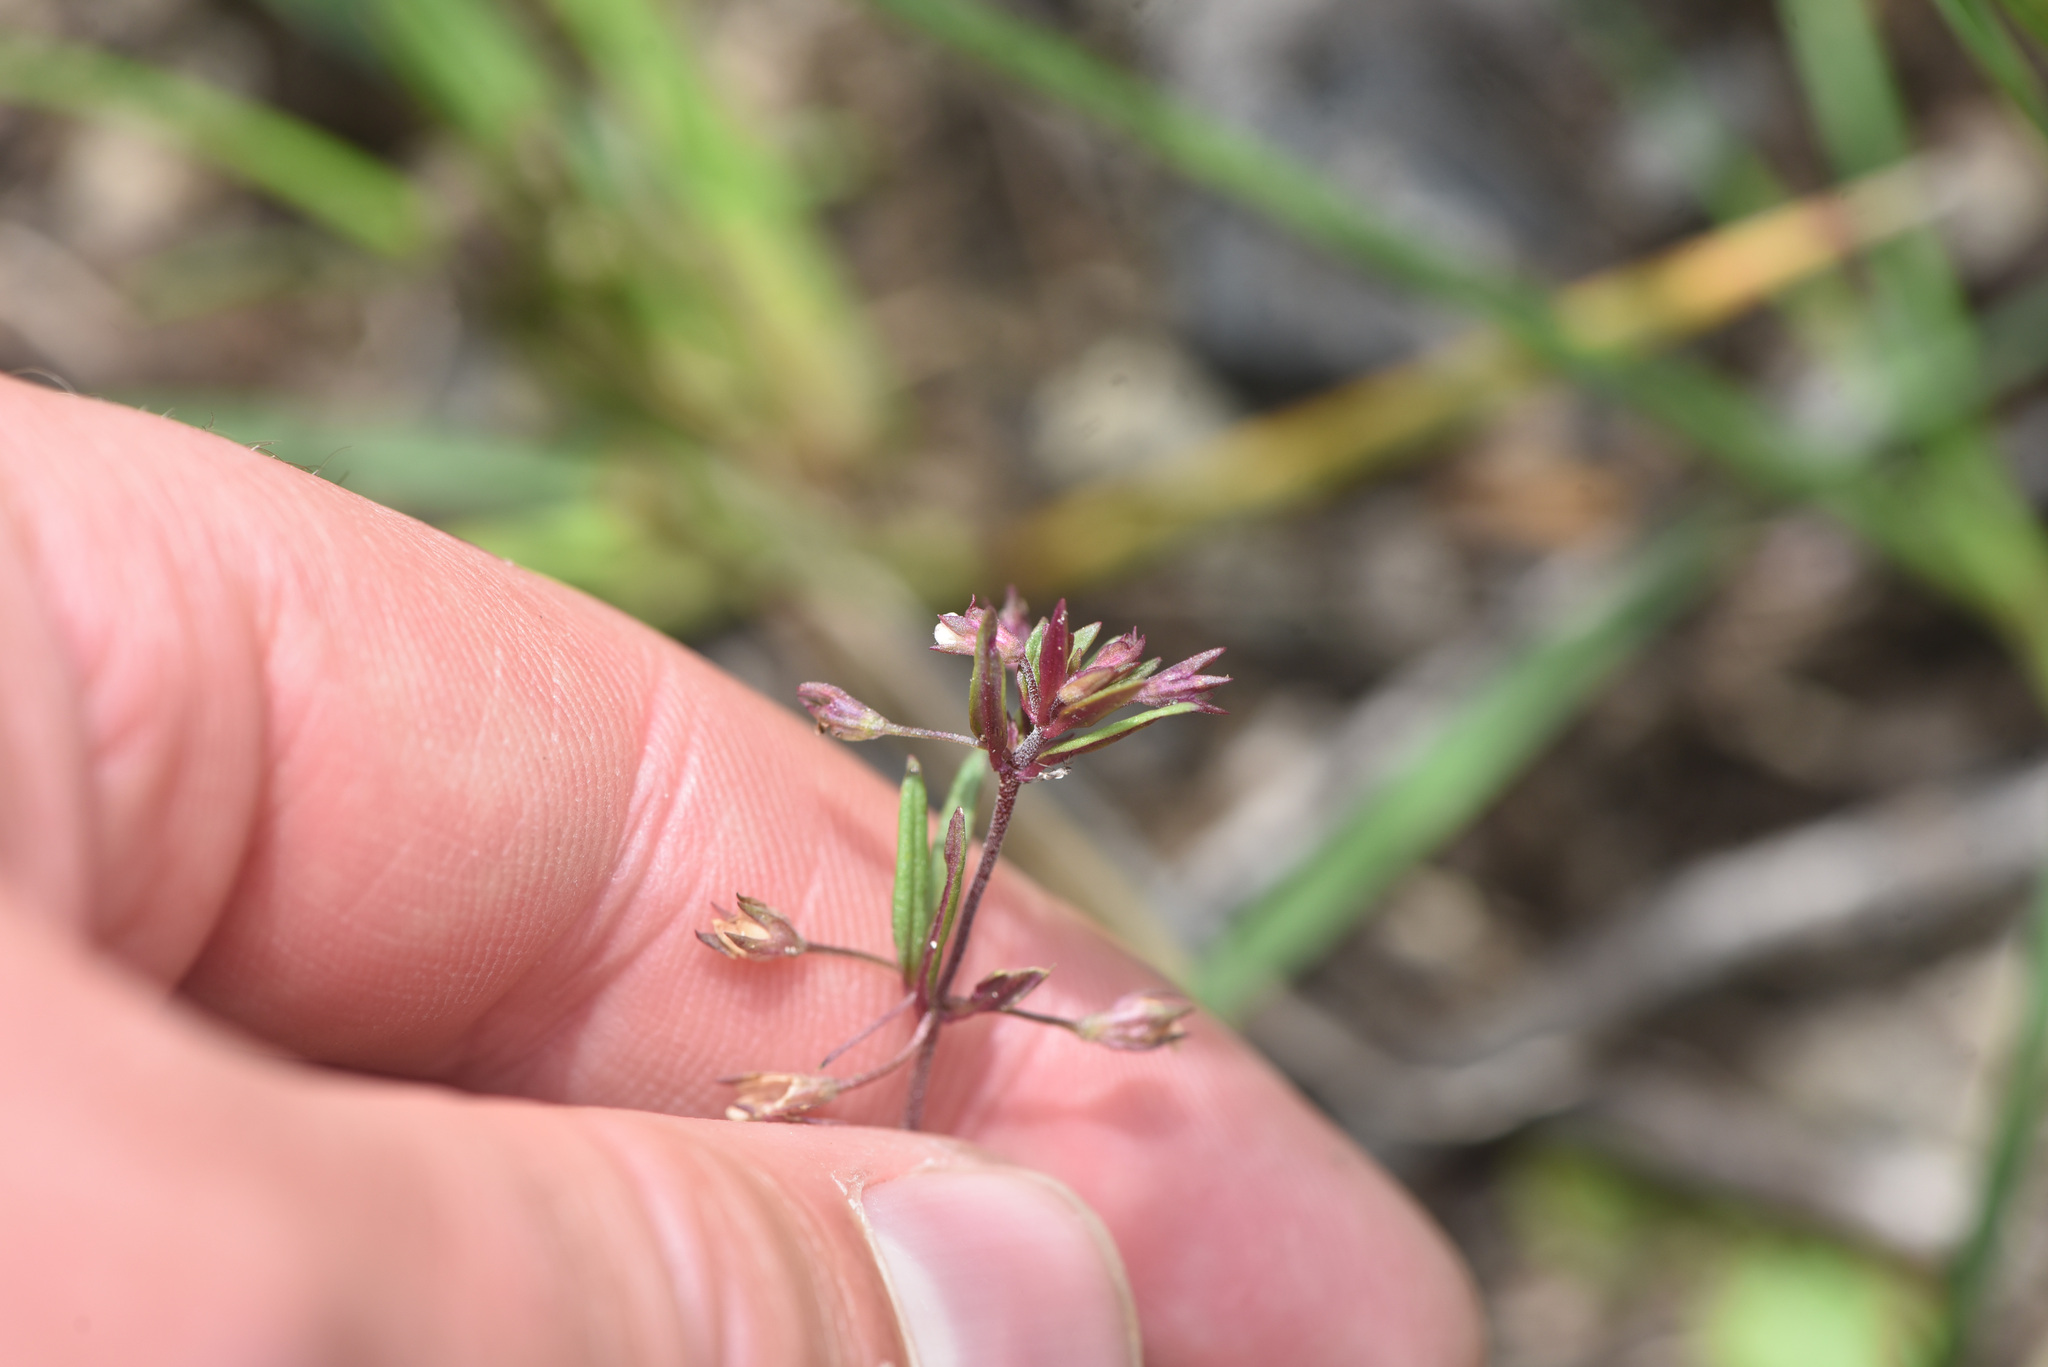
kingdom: Plantae
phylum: Tracheophyta
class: Magnoliopsida
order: Lamiales
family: Plantaginaceae
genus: Collinsia
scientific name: Collinsia parviflora
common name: Blue-lips
